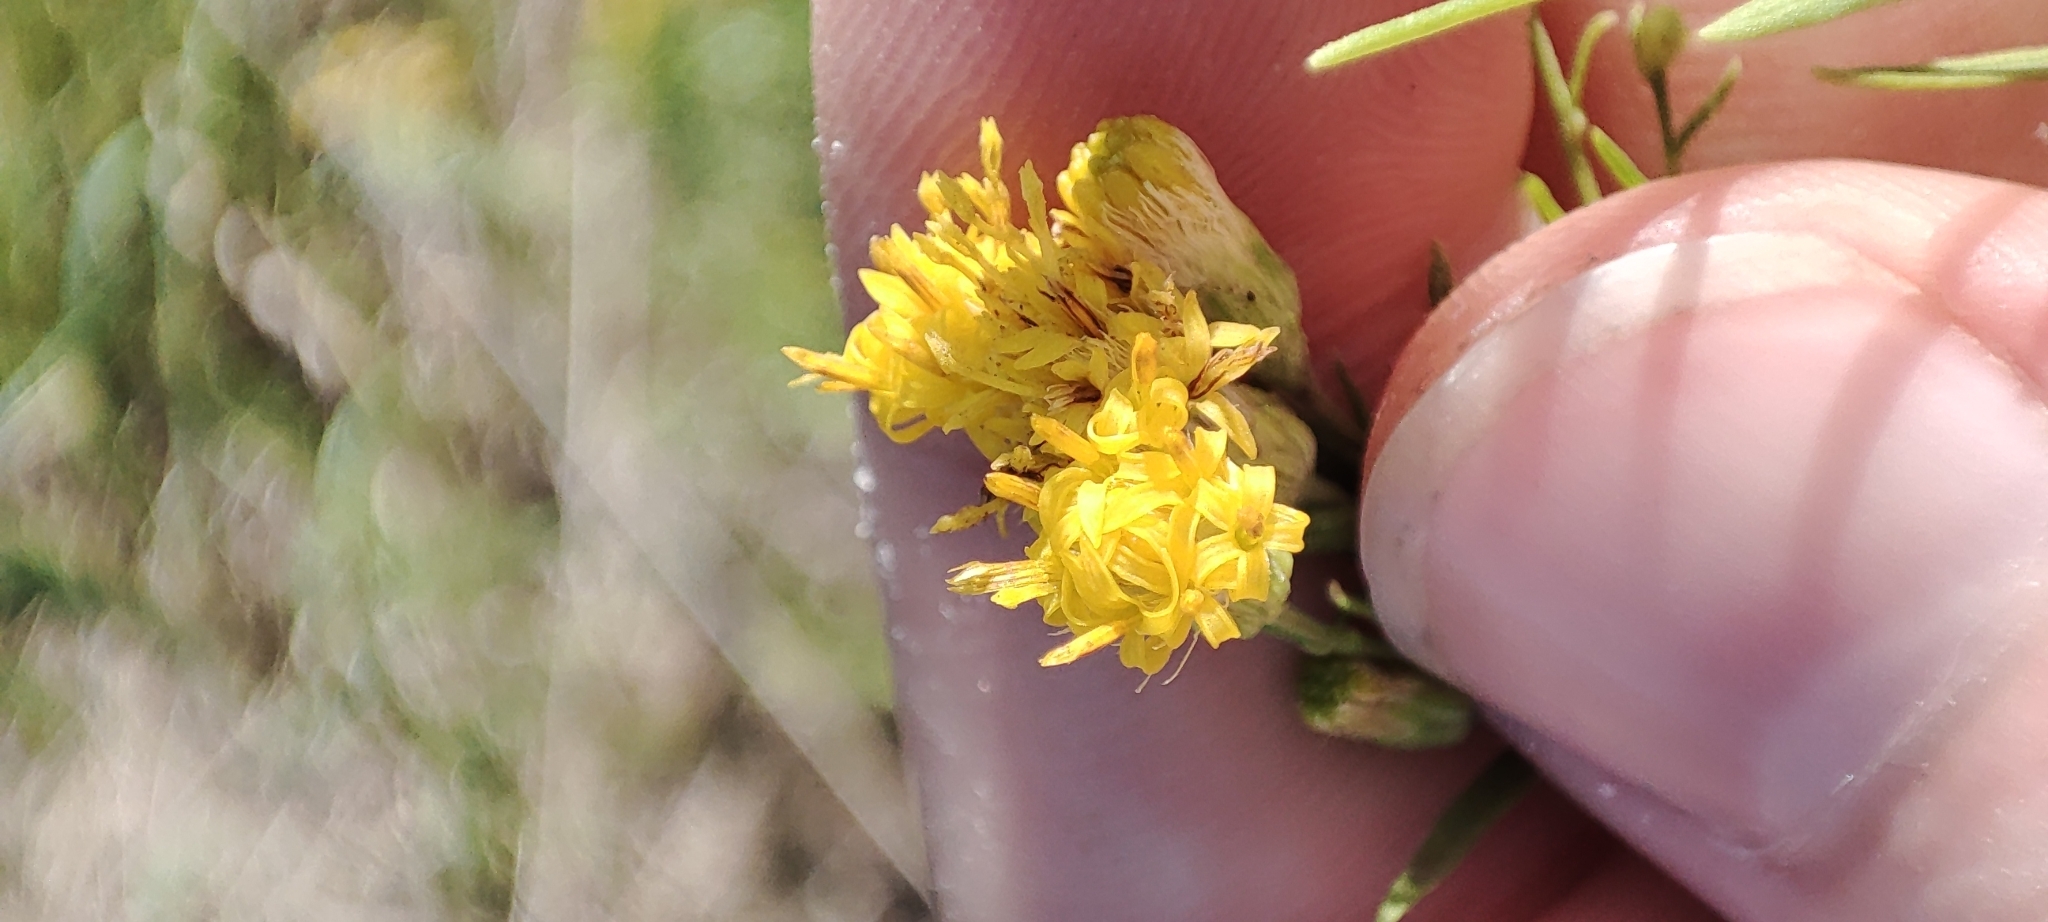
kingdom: Plantae
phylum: Tracheophyta
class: Magnoliopsida
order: Asterales
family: Asteraceae
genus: Galatella
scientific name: Galatella biflora
